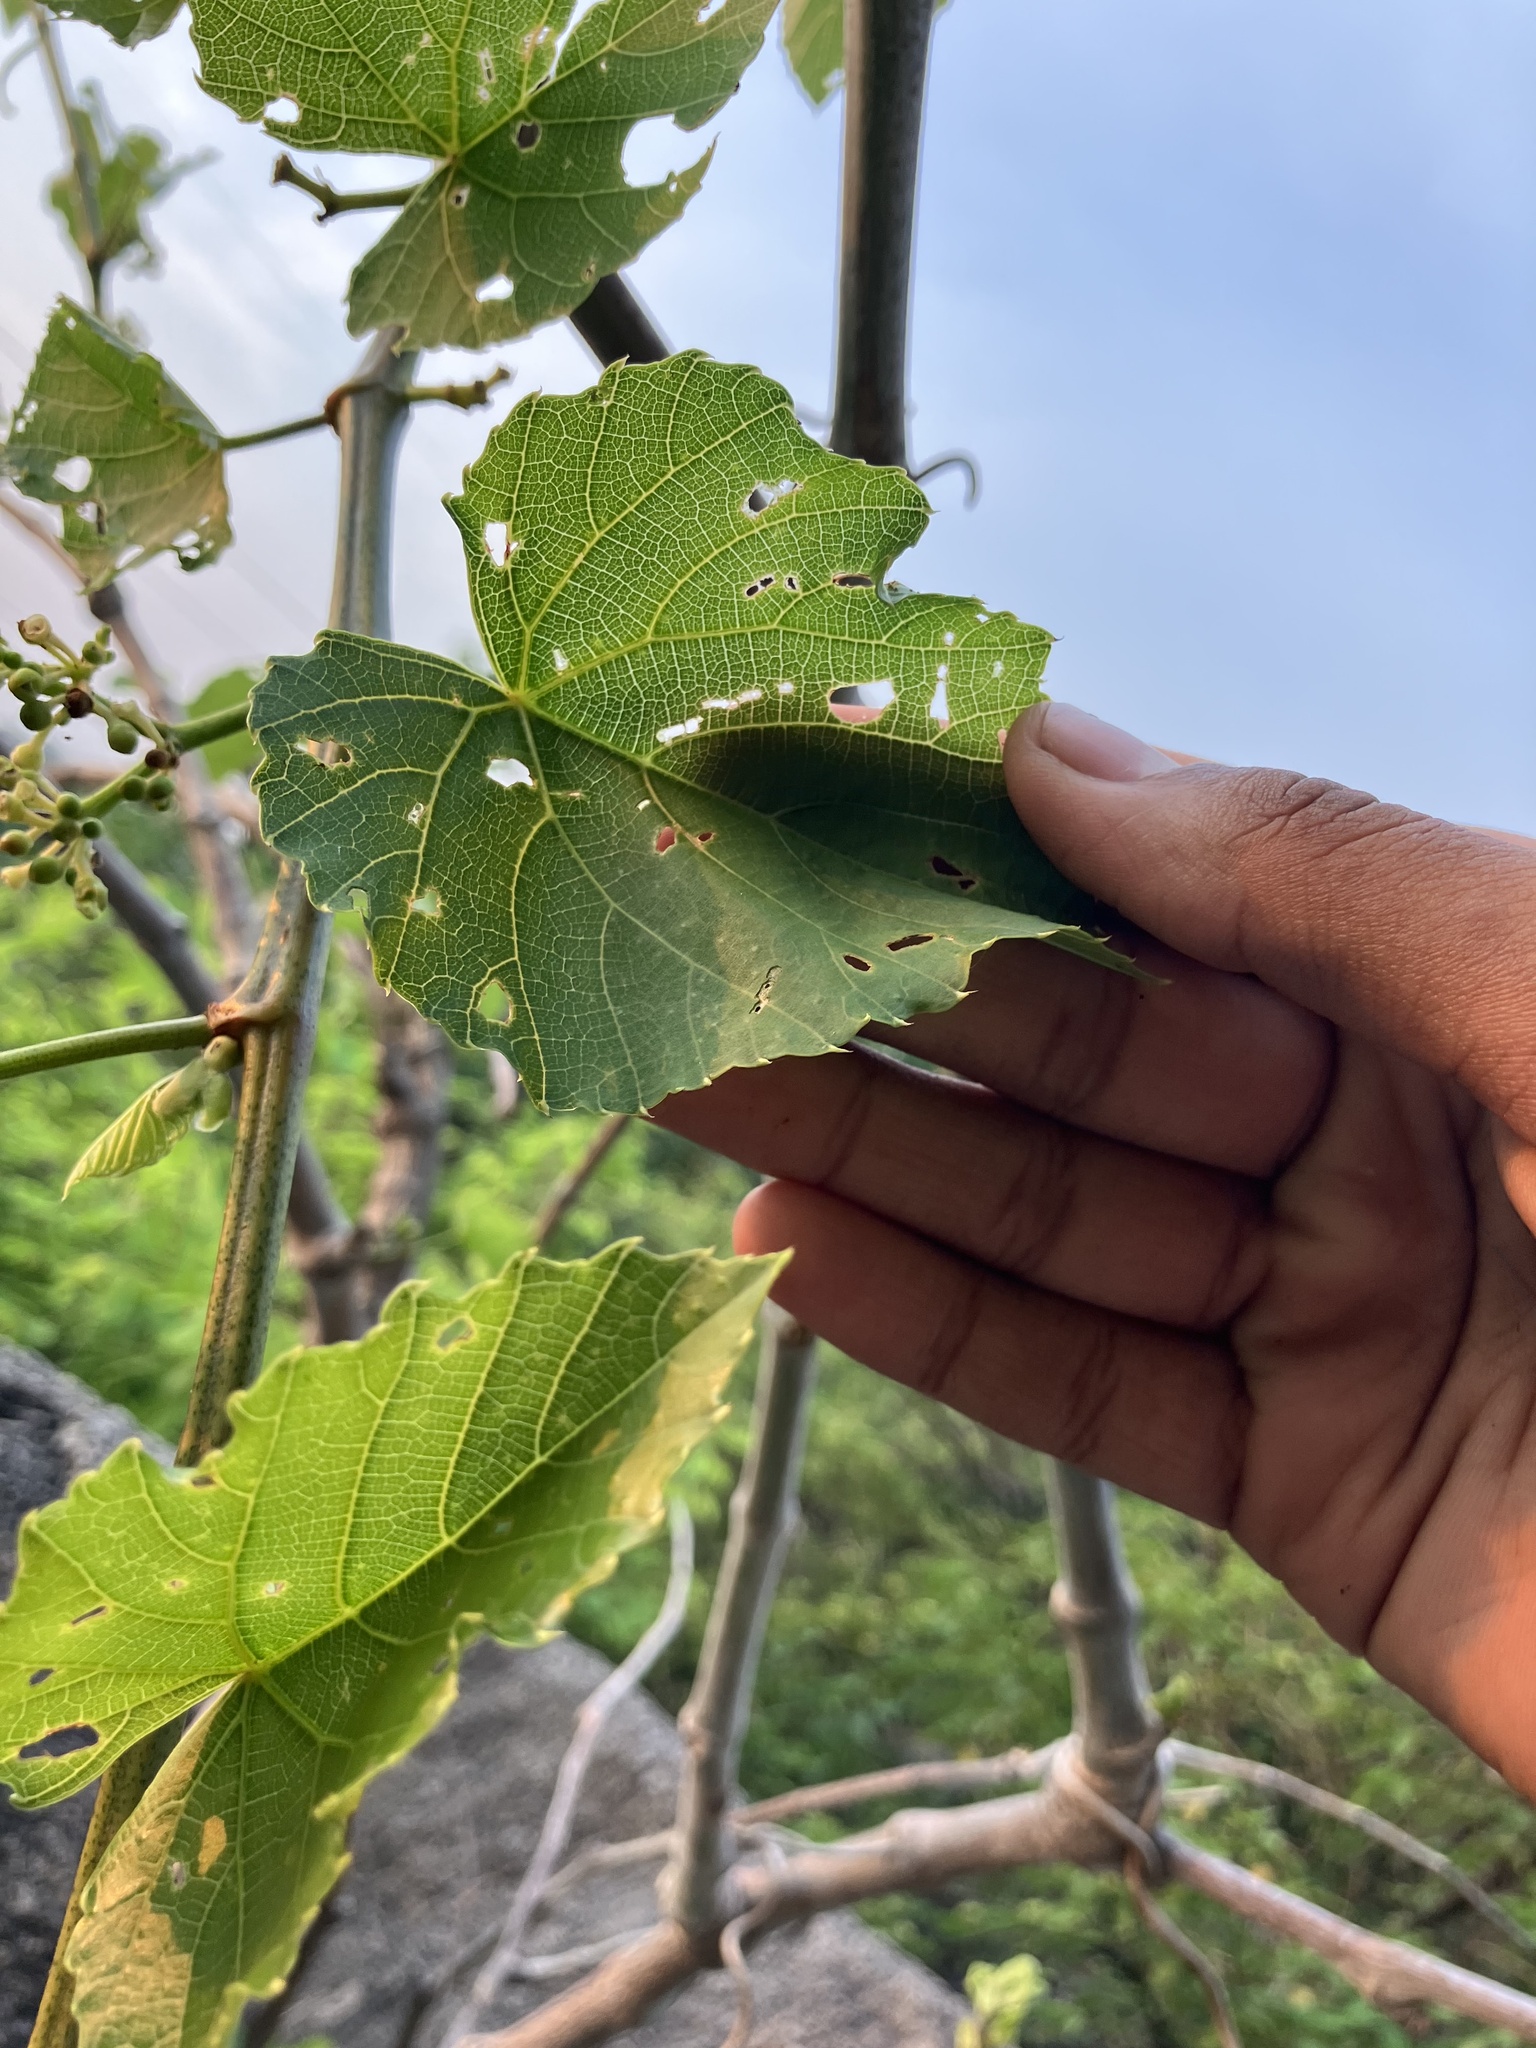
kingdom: Plantae
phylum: Tracheophyta
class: Magnoliopsida
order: Vitales
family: Vitaceae
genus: Cissus
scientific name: Cissus arnottiana
